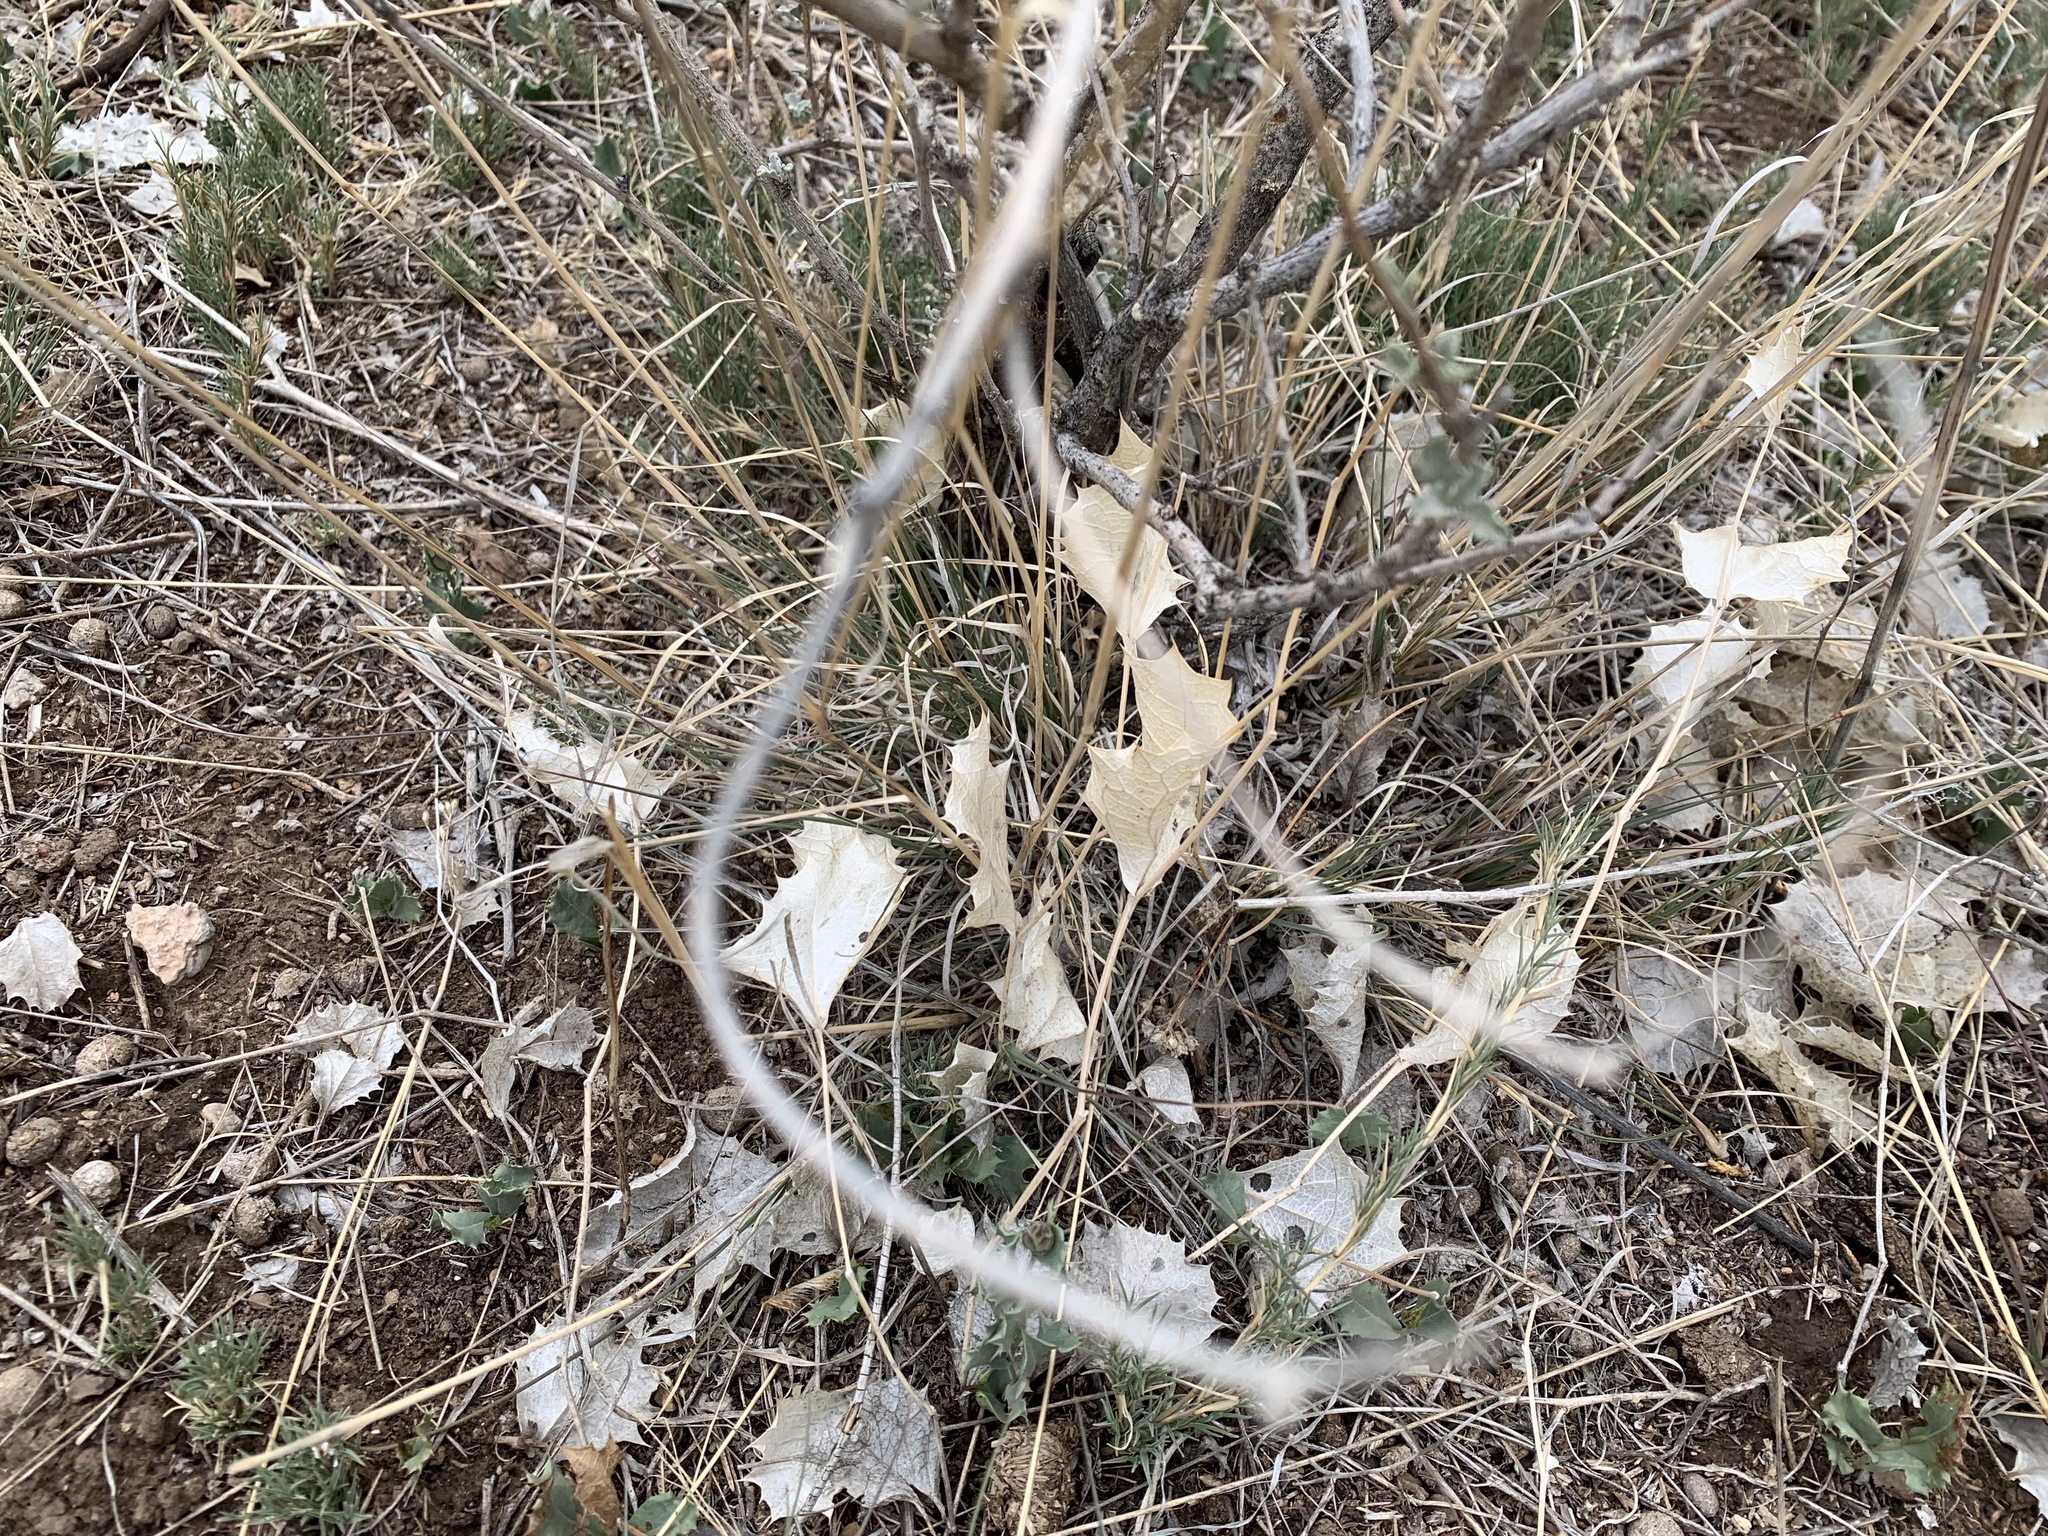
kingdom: Plantae
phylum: Tracheophyta
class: Magnoliopsida
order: Asterales
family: Asteraceae
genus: Acourtia
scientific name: Acourtia nana
